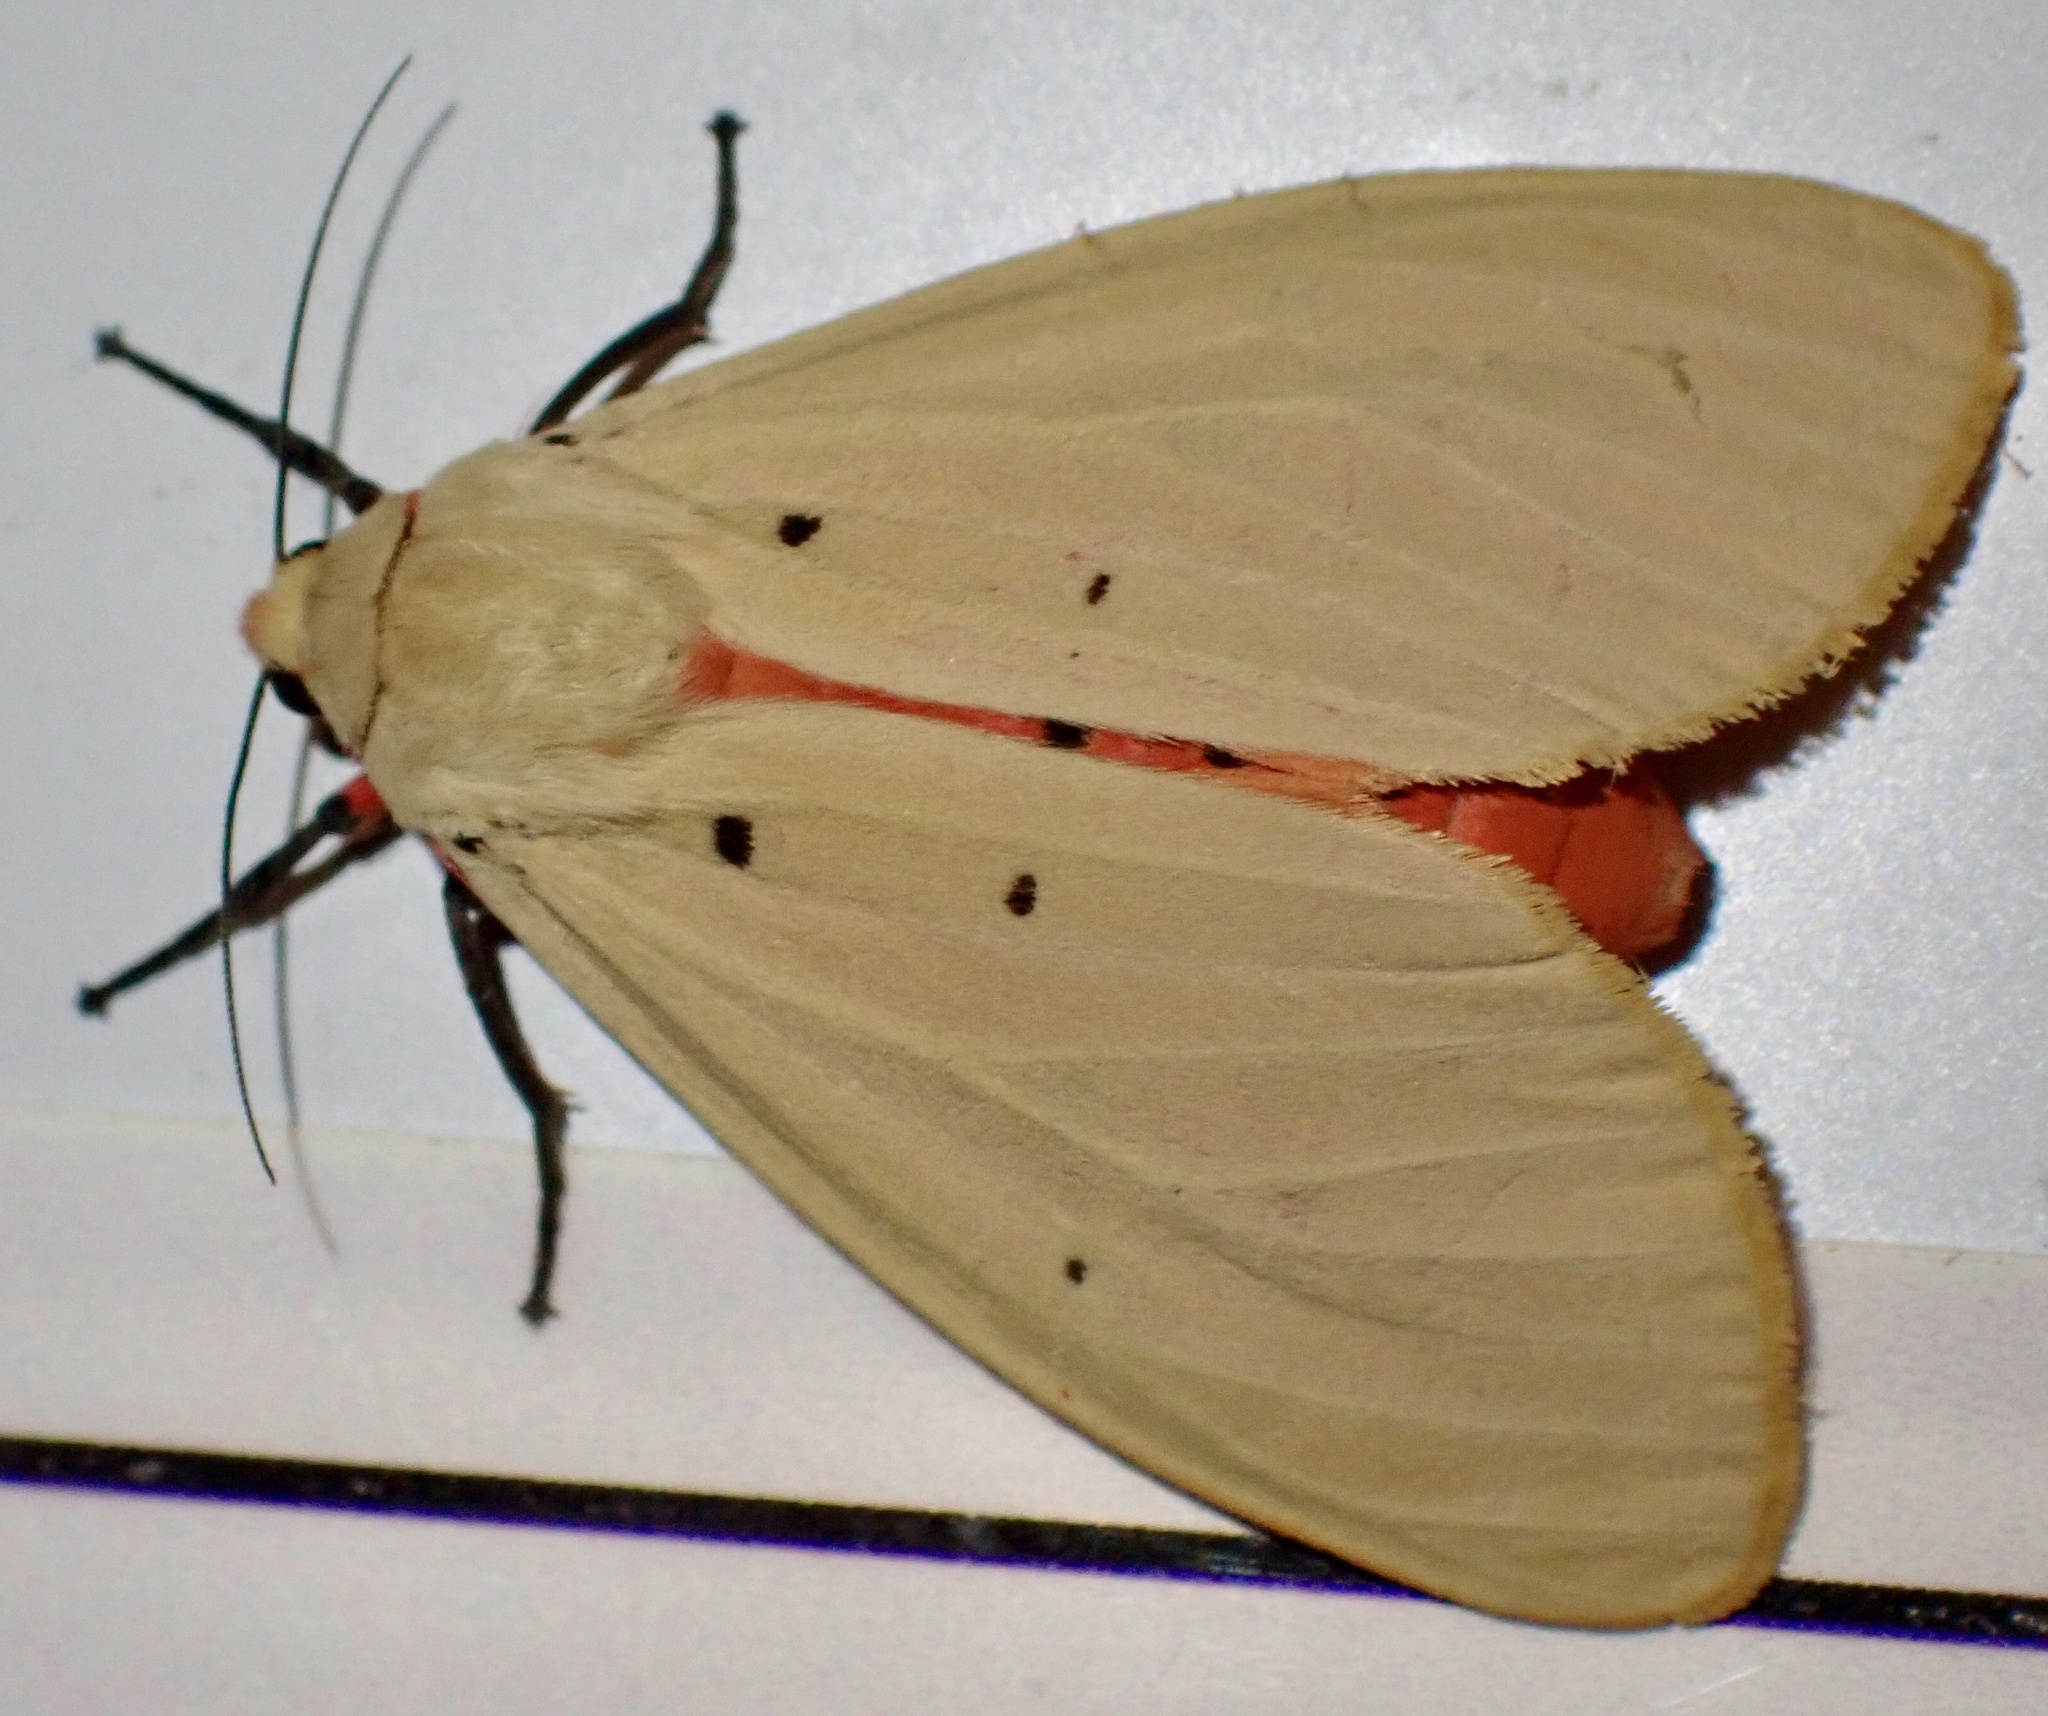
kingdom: Animalia
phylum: Arthropoda
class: Insecta
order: Lepidoptera
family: Erebidae
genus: Nicetosoma
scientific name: Nicetosoma
